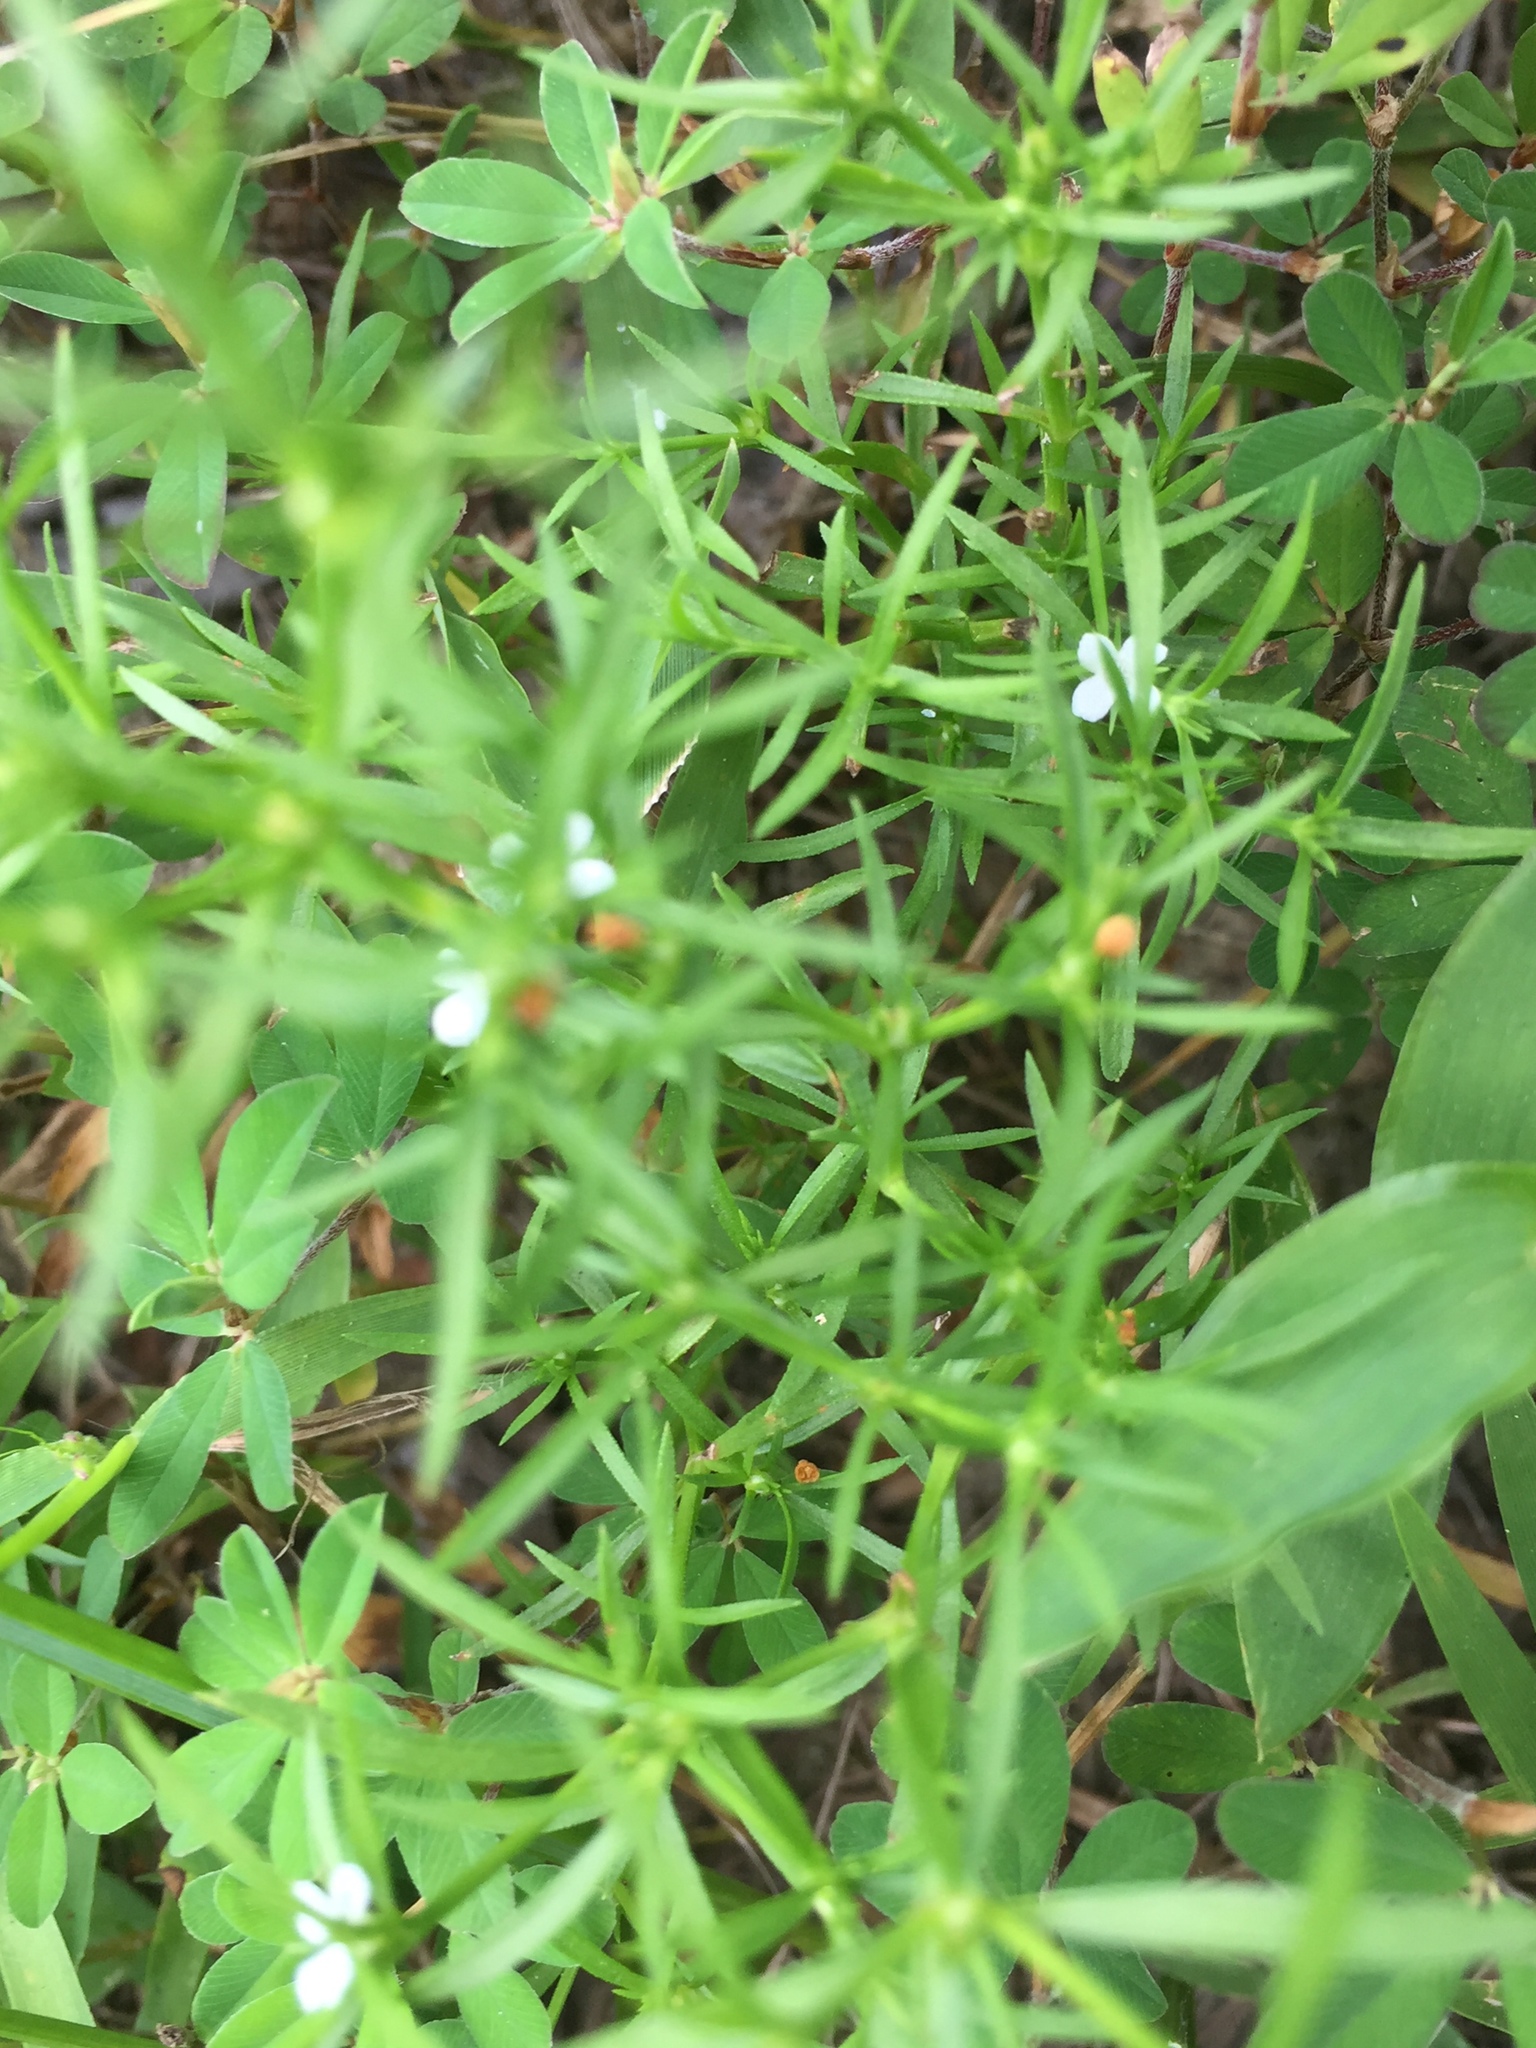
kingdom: Plantae
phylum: Tracheophyta
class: Magnoliopsida
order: Lamiales
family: Tetrachondraceae
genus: Polypremum
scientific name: Polypremum procumbens
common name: Juniper-leaf
